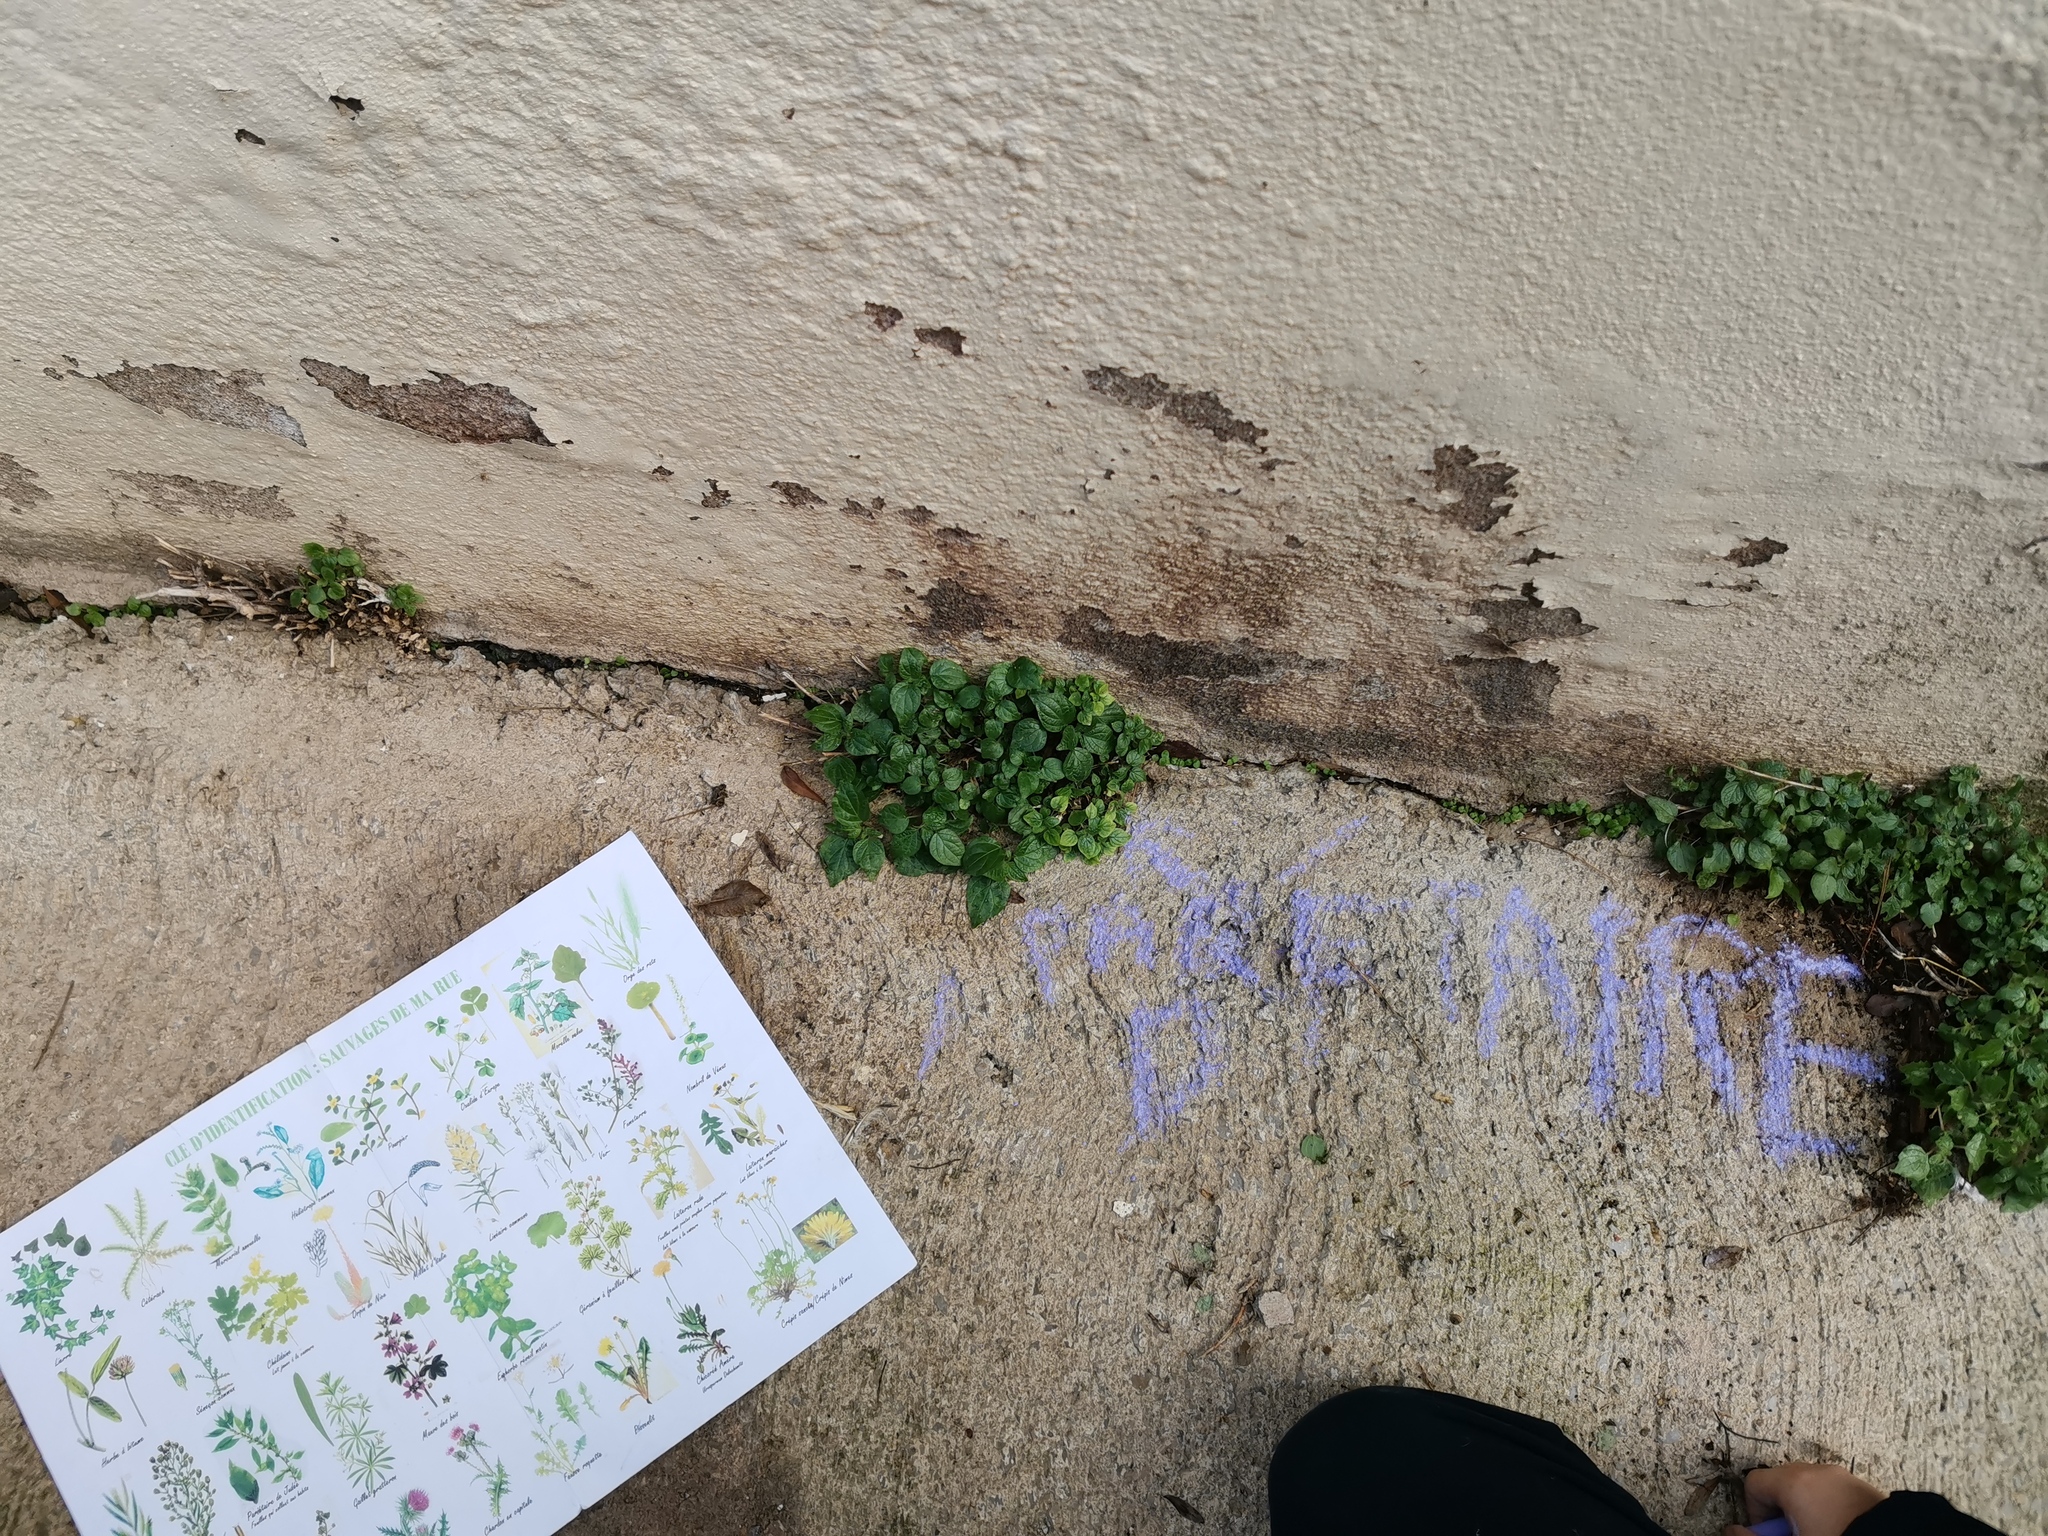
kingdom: Plantae
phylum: Tracheophyta
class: Magnoliopsida
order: Rosales
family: Urticaceae
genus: Parietaria
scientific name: Parietaria judaica
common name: Pellitory-of-the-wall
